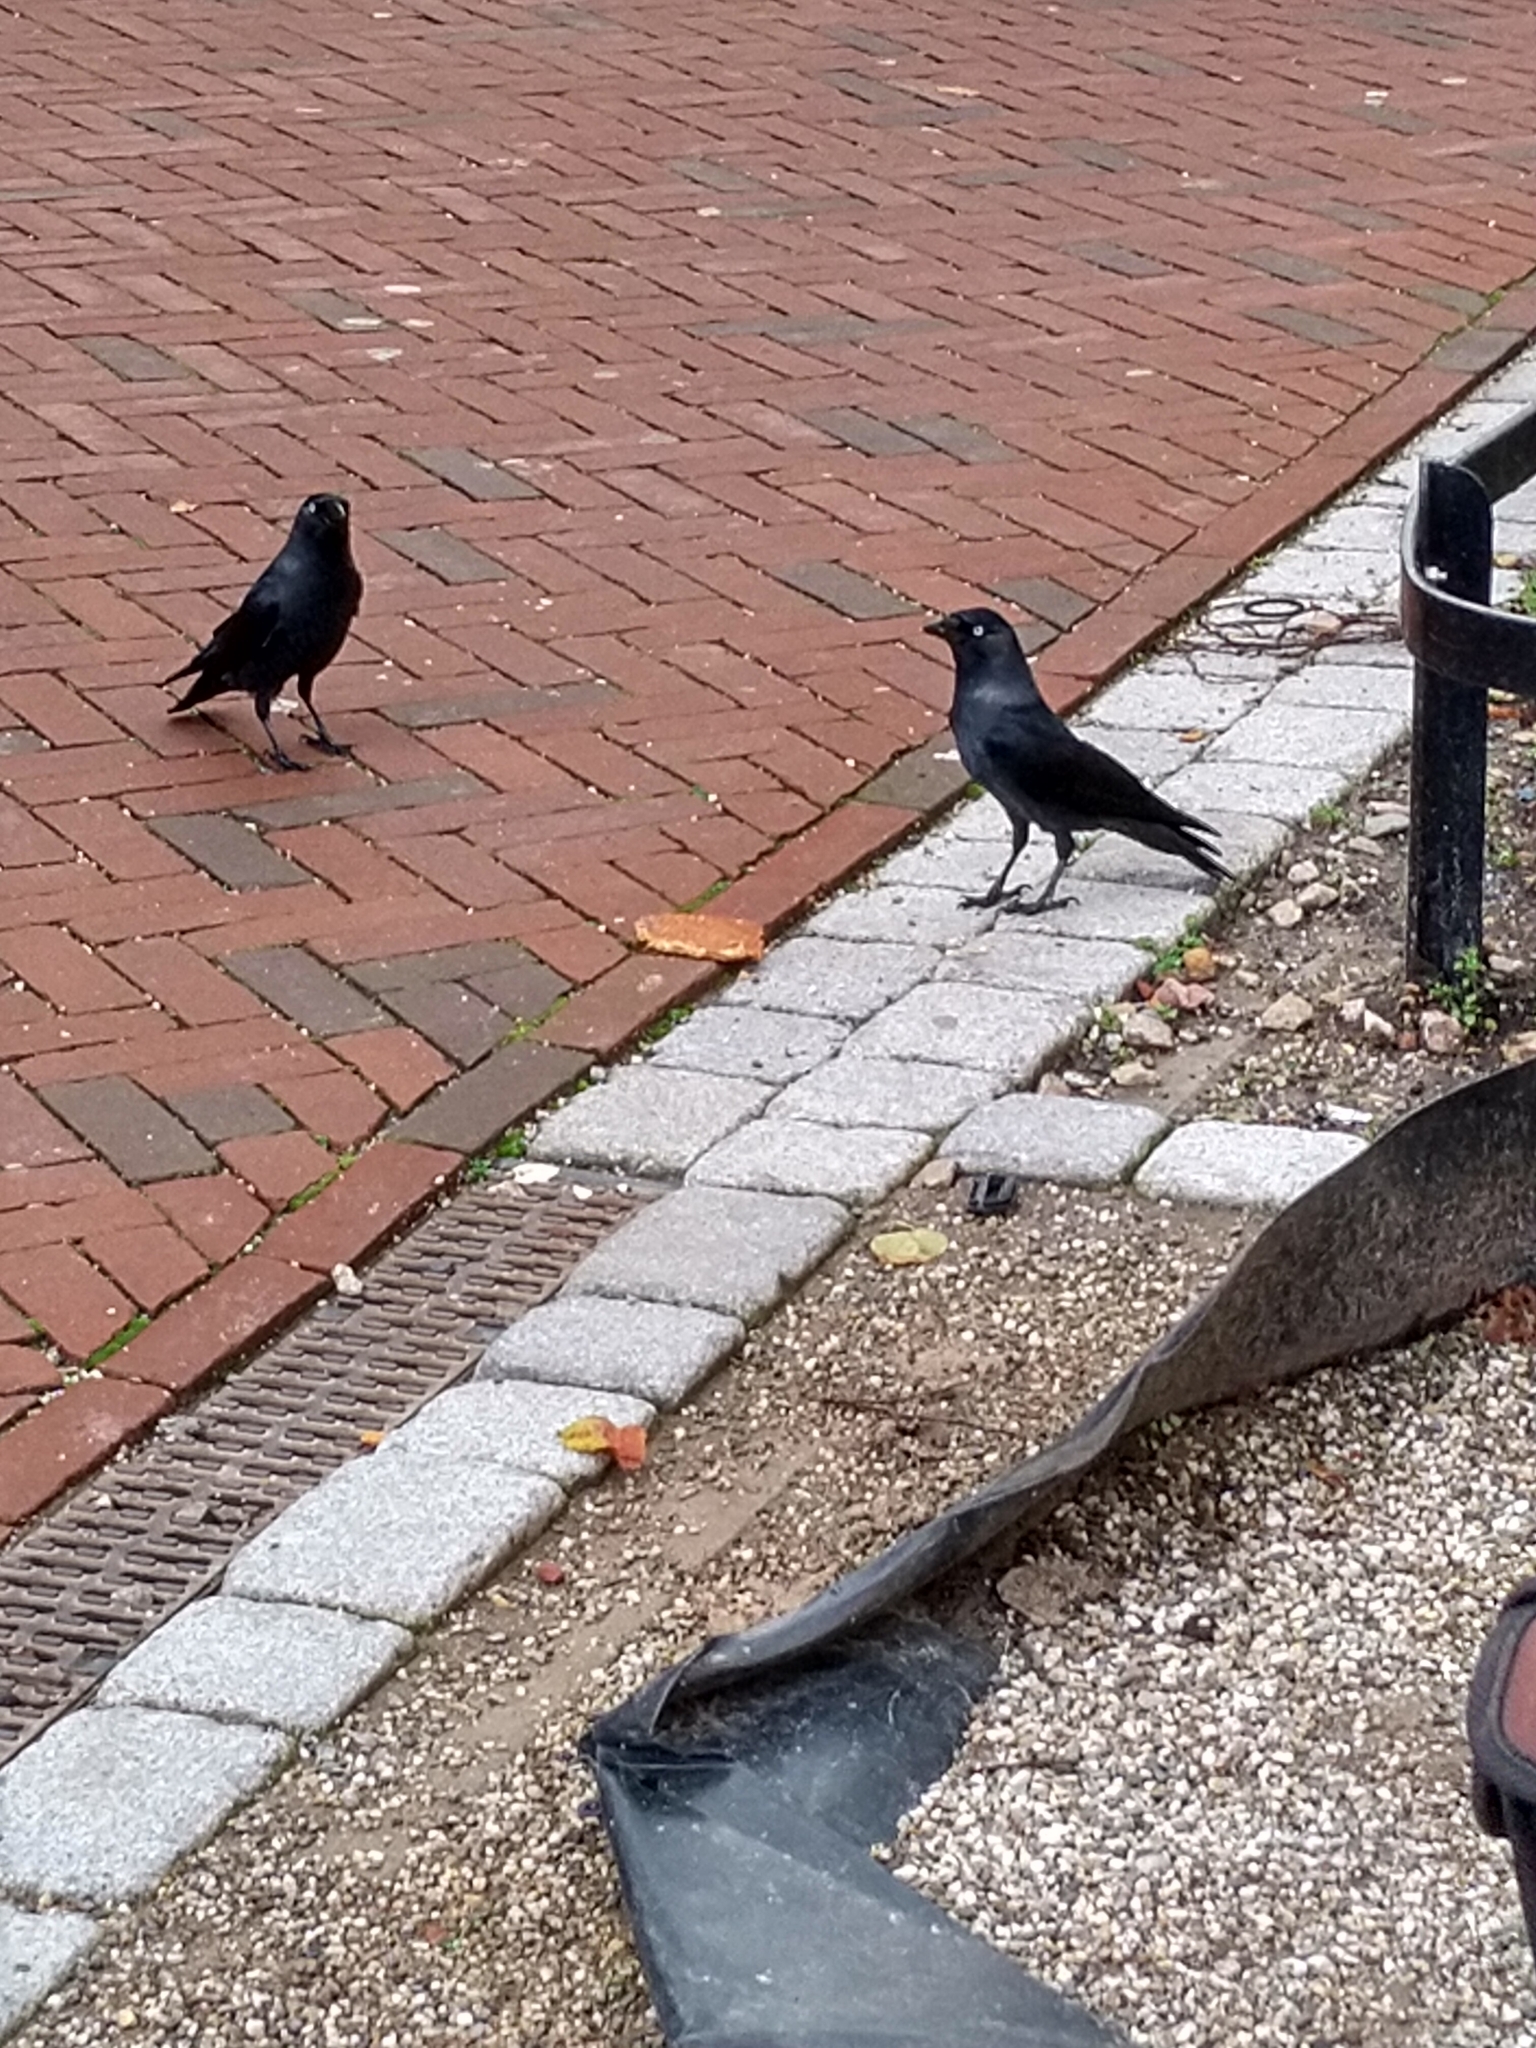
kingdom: Animalia
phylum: Chordata
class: Aves
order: Passeriformes
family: Corvidae
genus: Coloeus
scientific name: Coloeus monedula
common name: Western jackdaw
